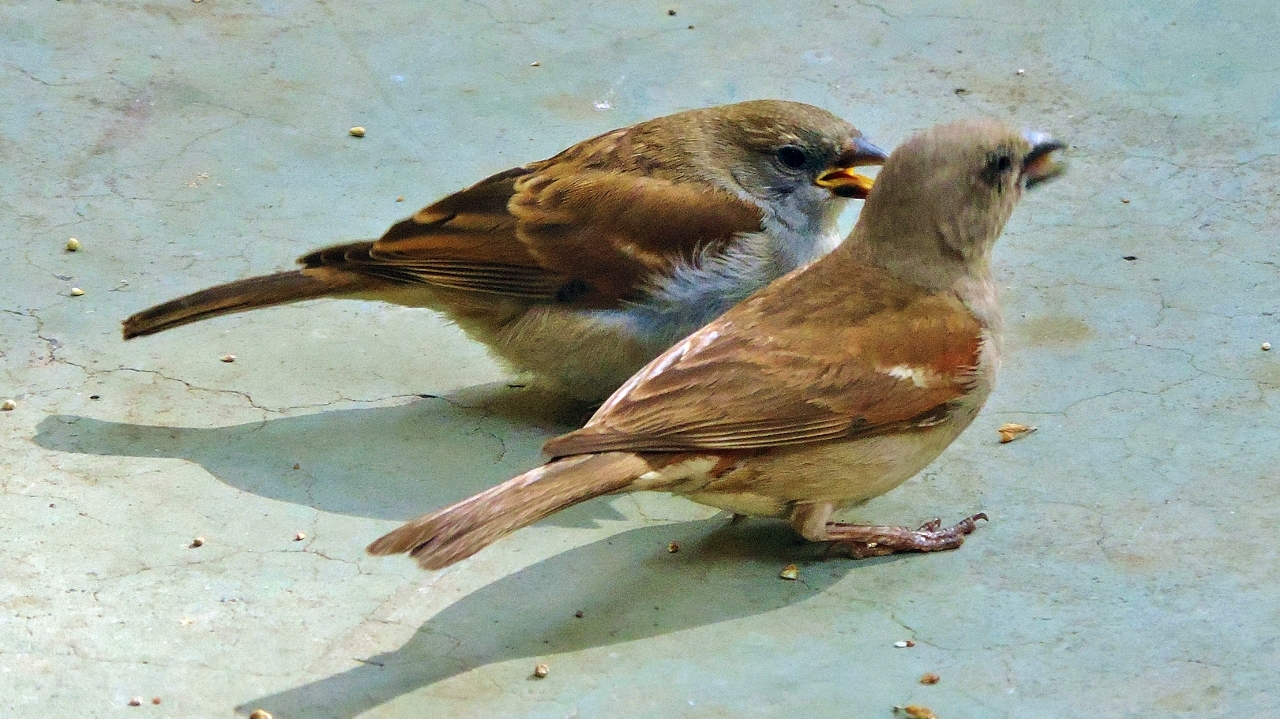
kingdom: Animalia
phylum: Chordata
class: Aves
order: Passeriformes
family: Passeridae
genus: Passer
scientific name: Passer diffusus
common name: Southern grey-headed sparrow
